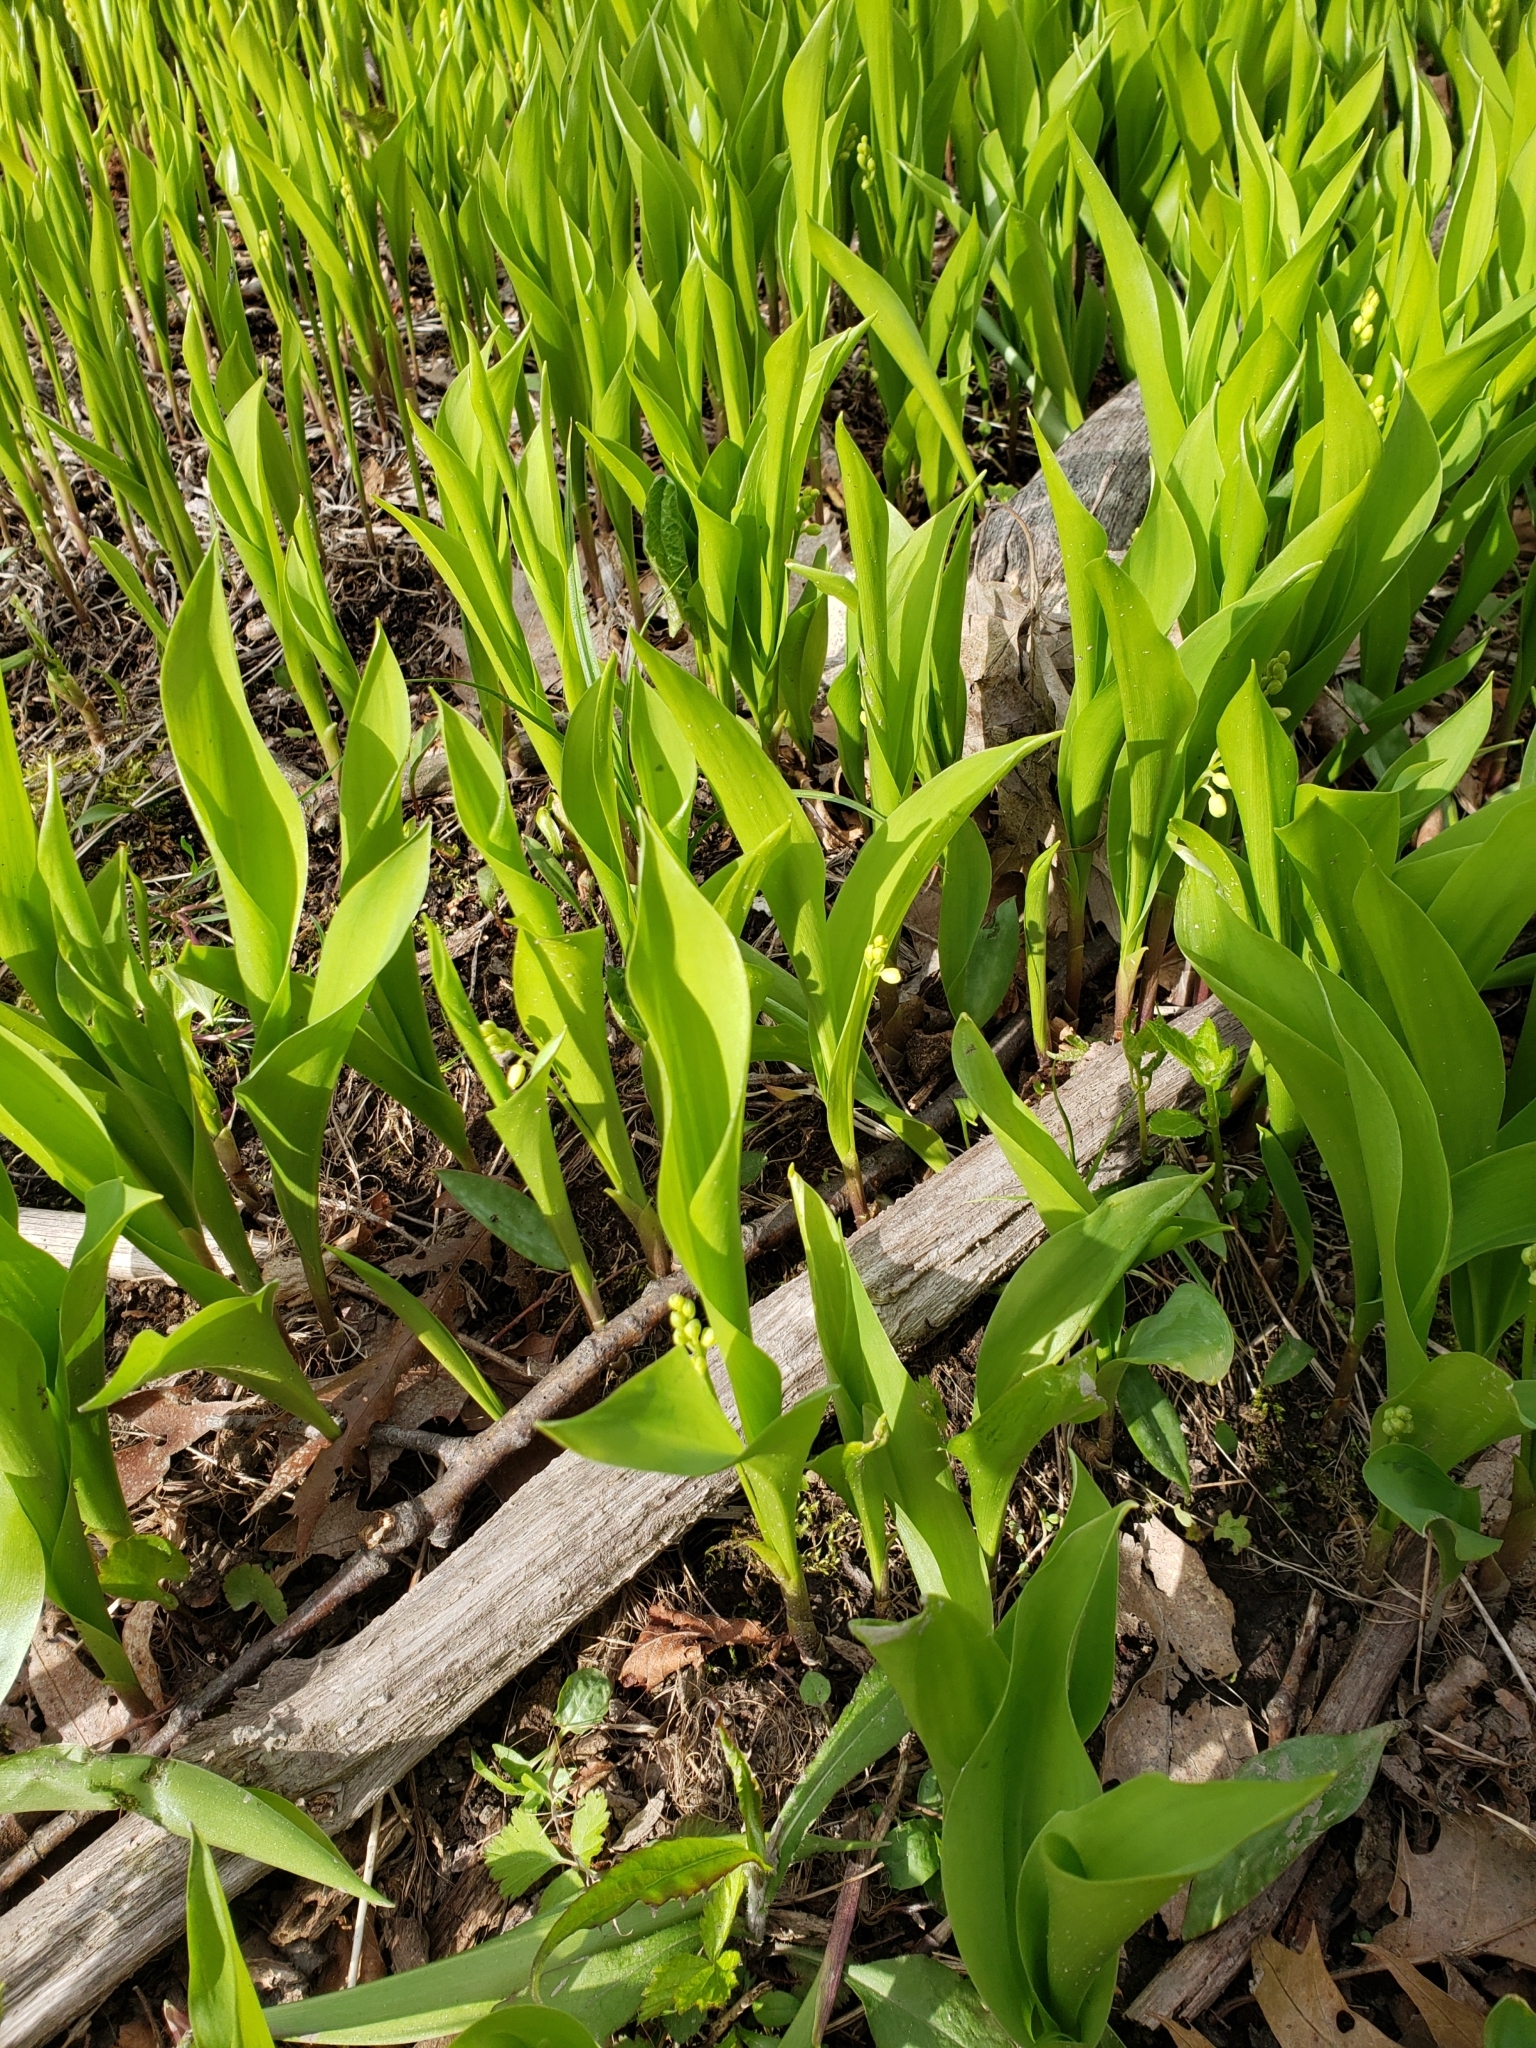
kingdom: Plantae
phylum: Tracheophyta
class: Liliopsida
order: Asparagales
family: Asparagaceae
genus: Convallaria
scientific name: Convallaria majalis
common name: Lily-of-the-valley
